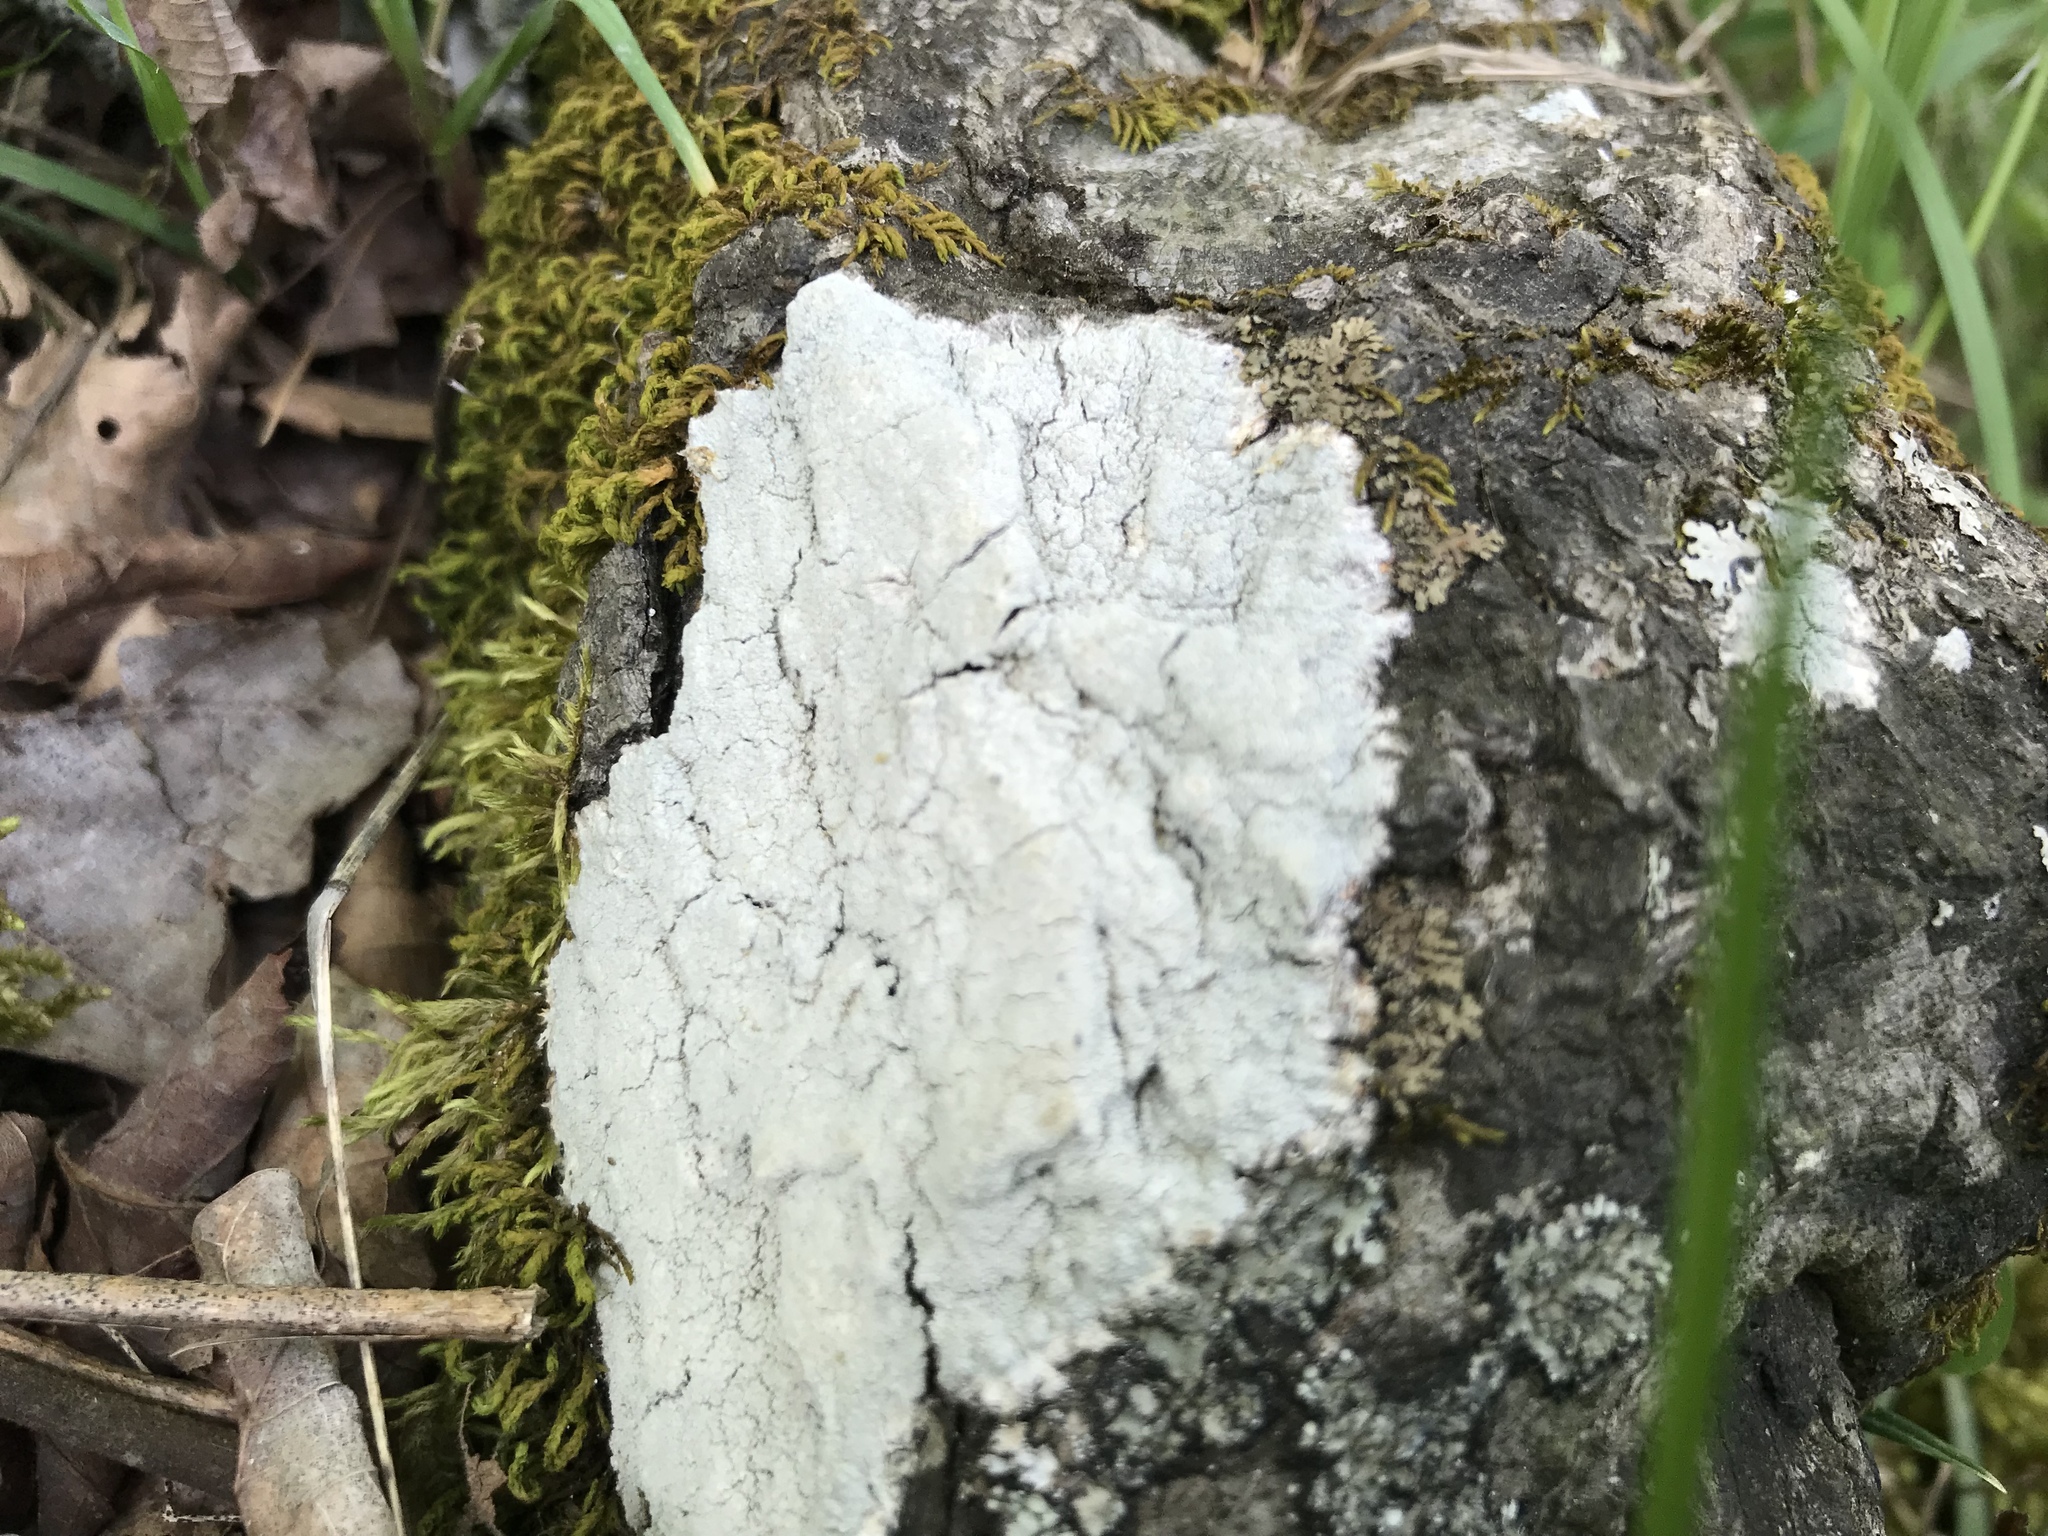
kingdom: Fungi
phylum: Ascomycota
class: Lecanoromycetes
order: Pertusariales
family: Pertusariaceae
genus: Lepra
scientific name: Lepra pustulata
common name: Pustule crust lichen
